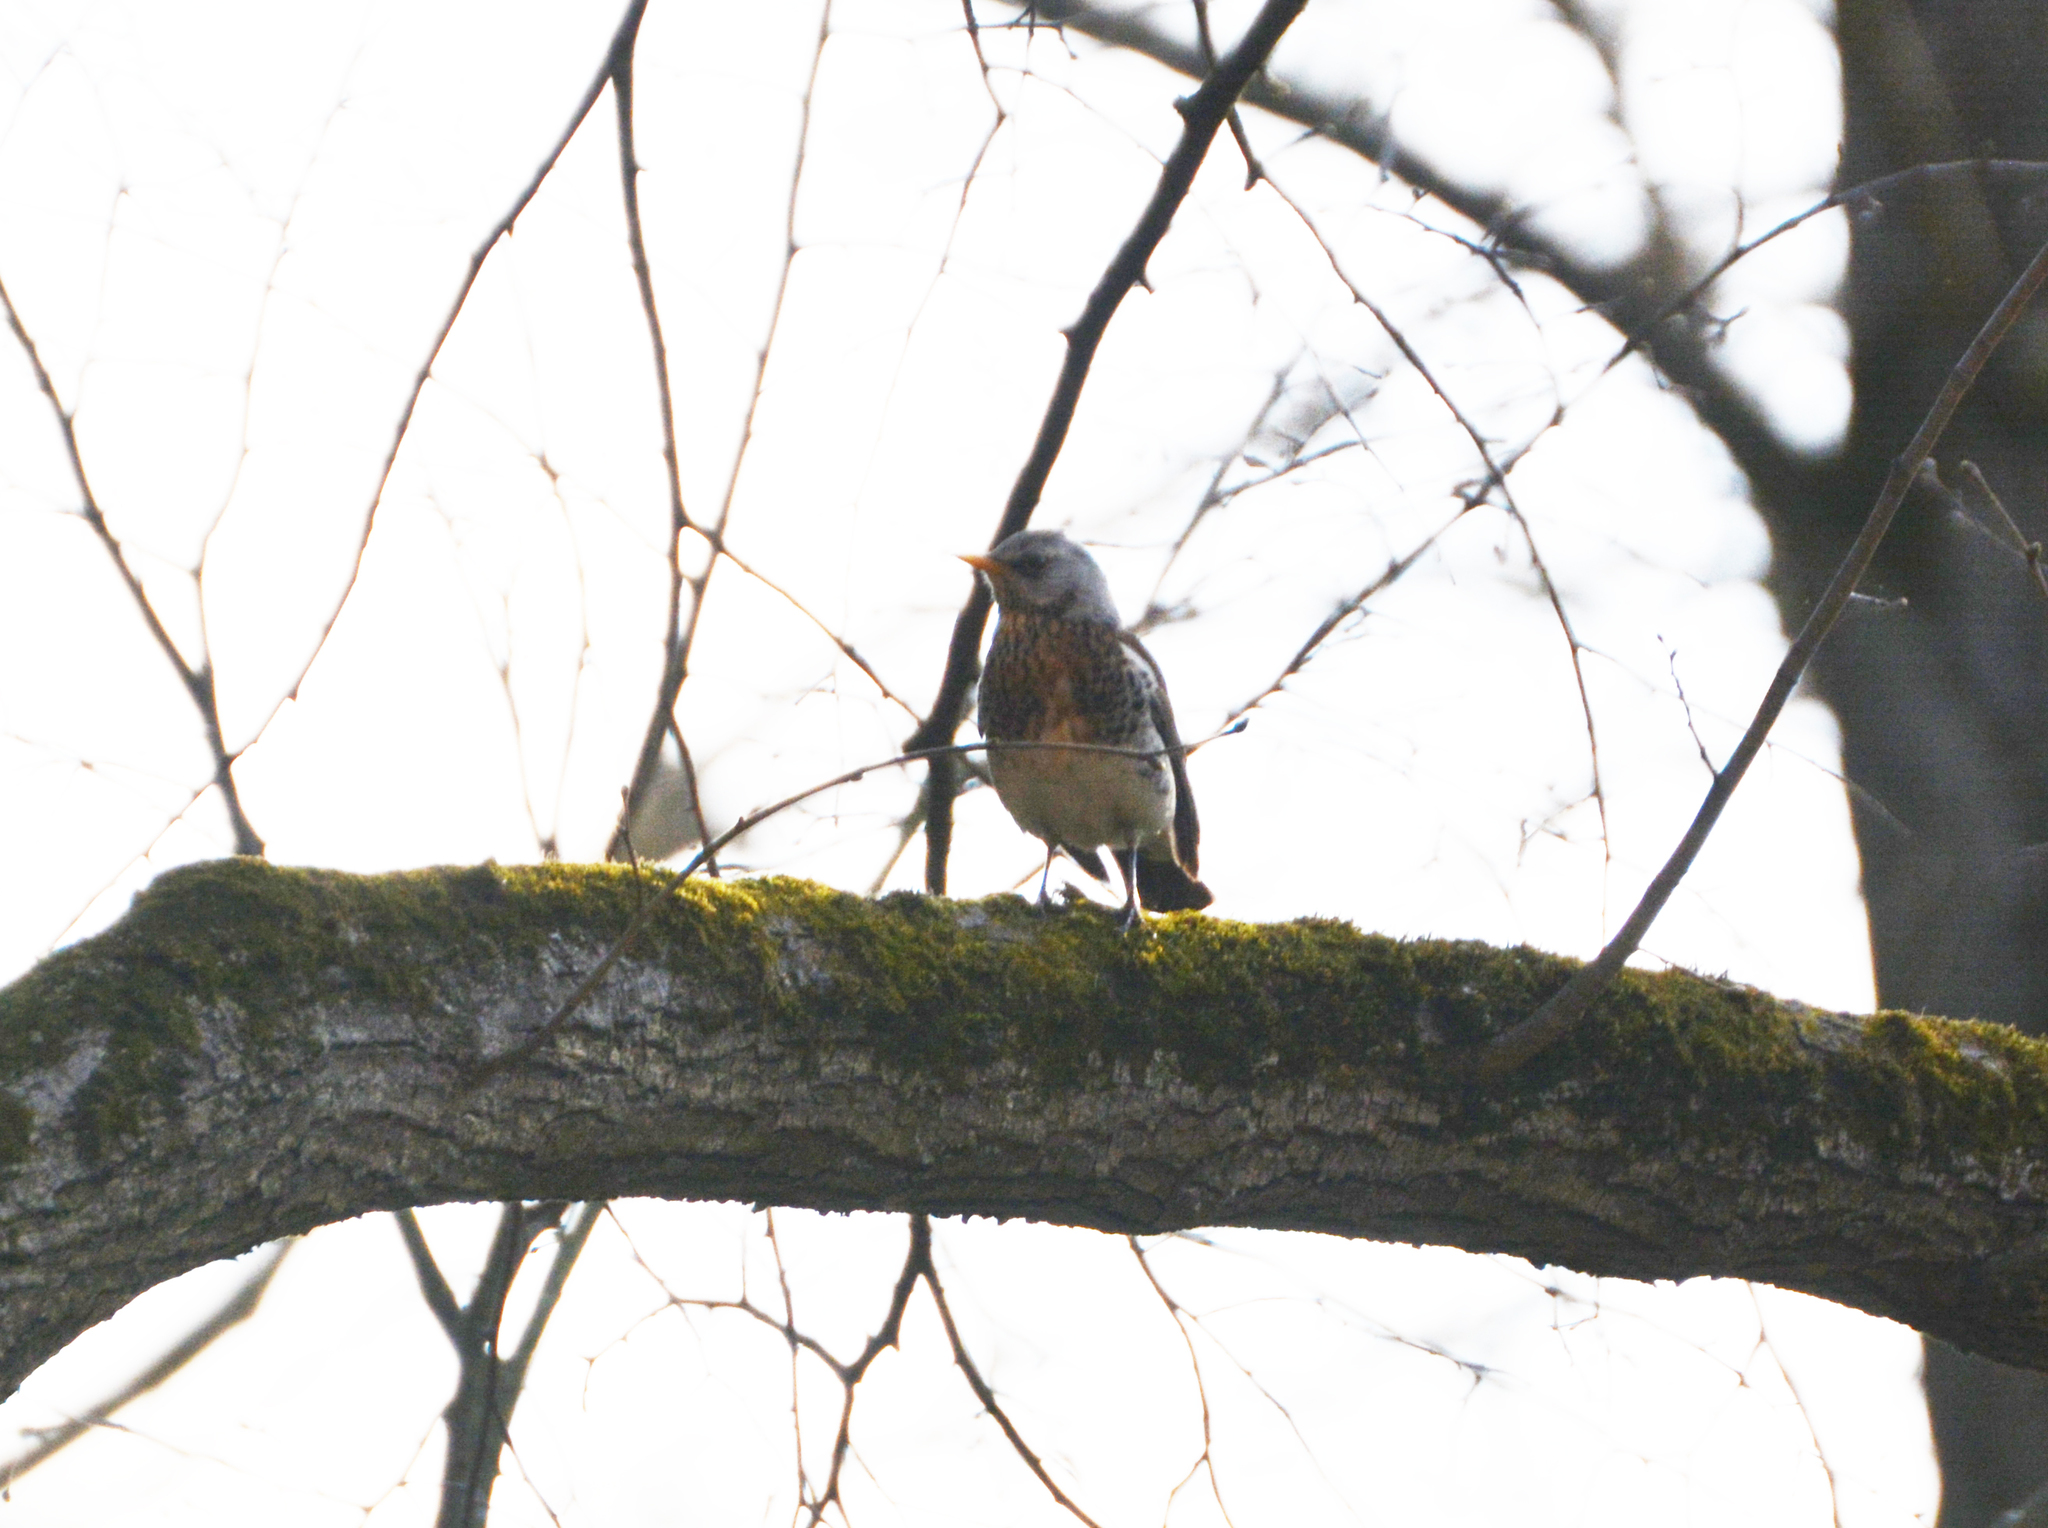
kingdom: Animalia
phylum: Chordata
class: Aves
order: Passeriformes
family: Turdidae
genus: Turdus
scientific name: Turdus pilaris
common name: Fieldfare
